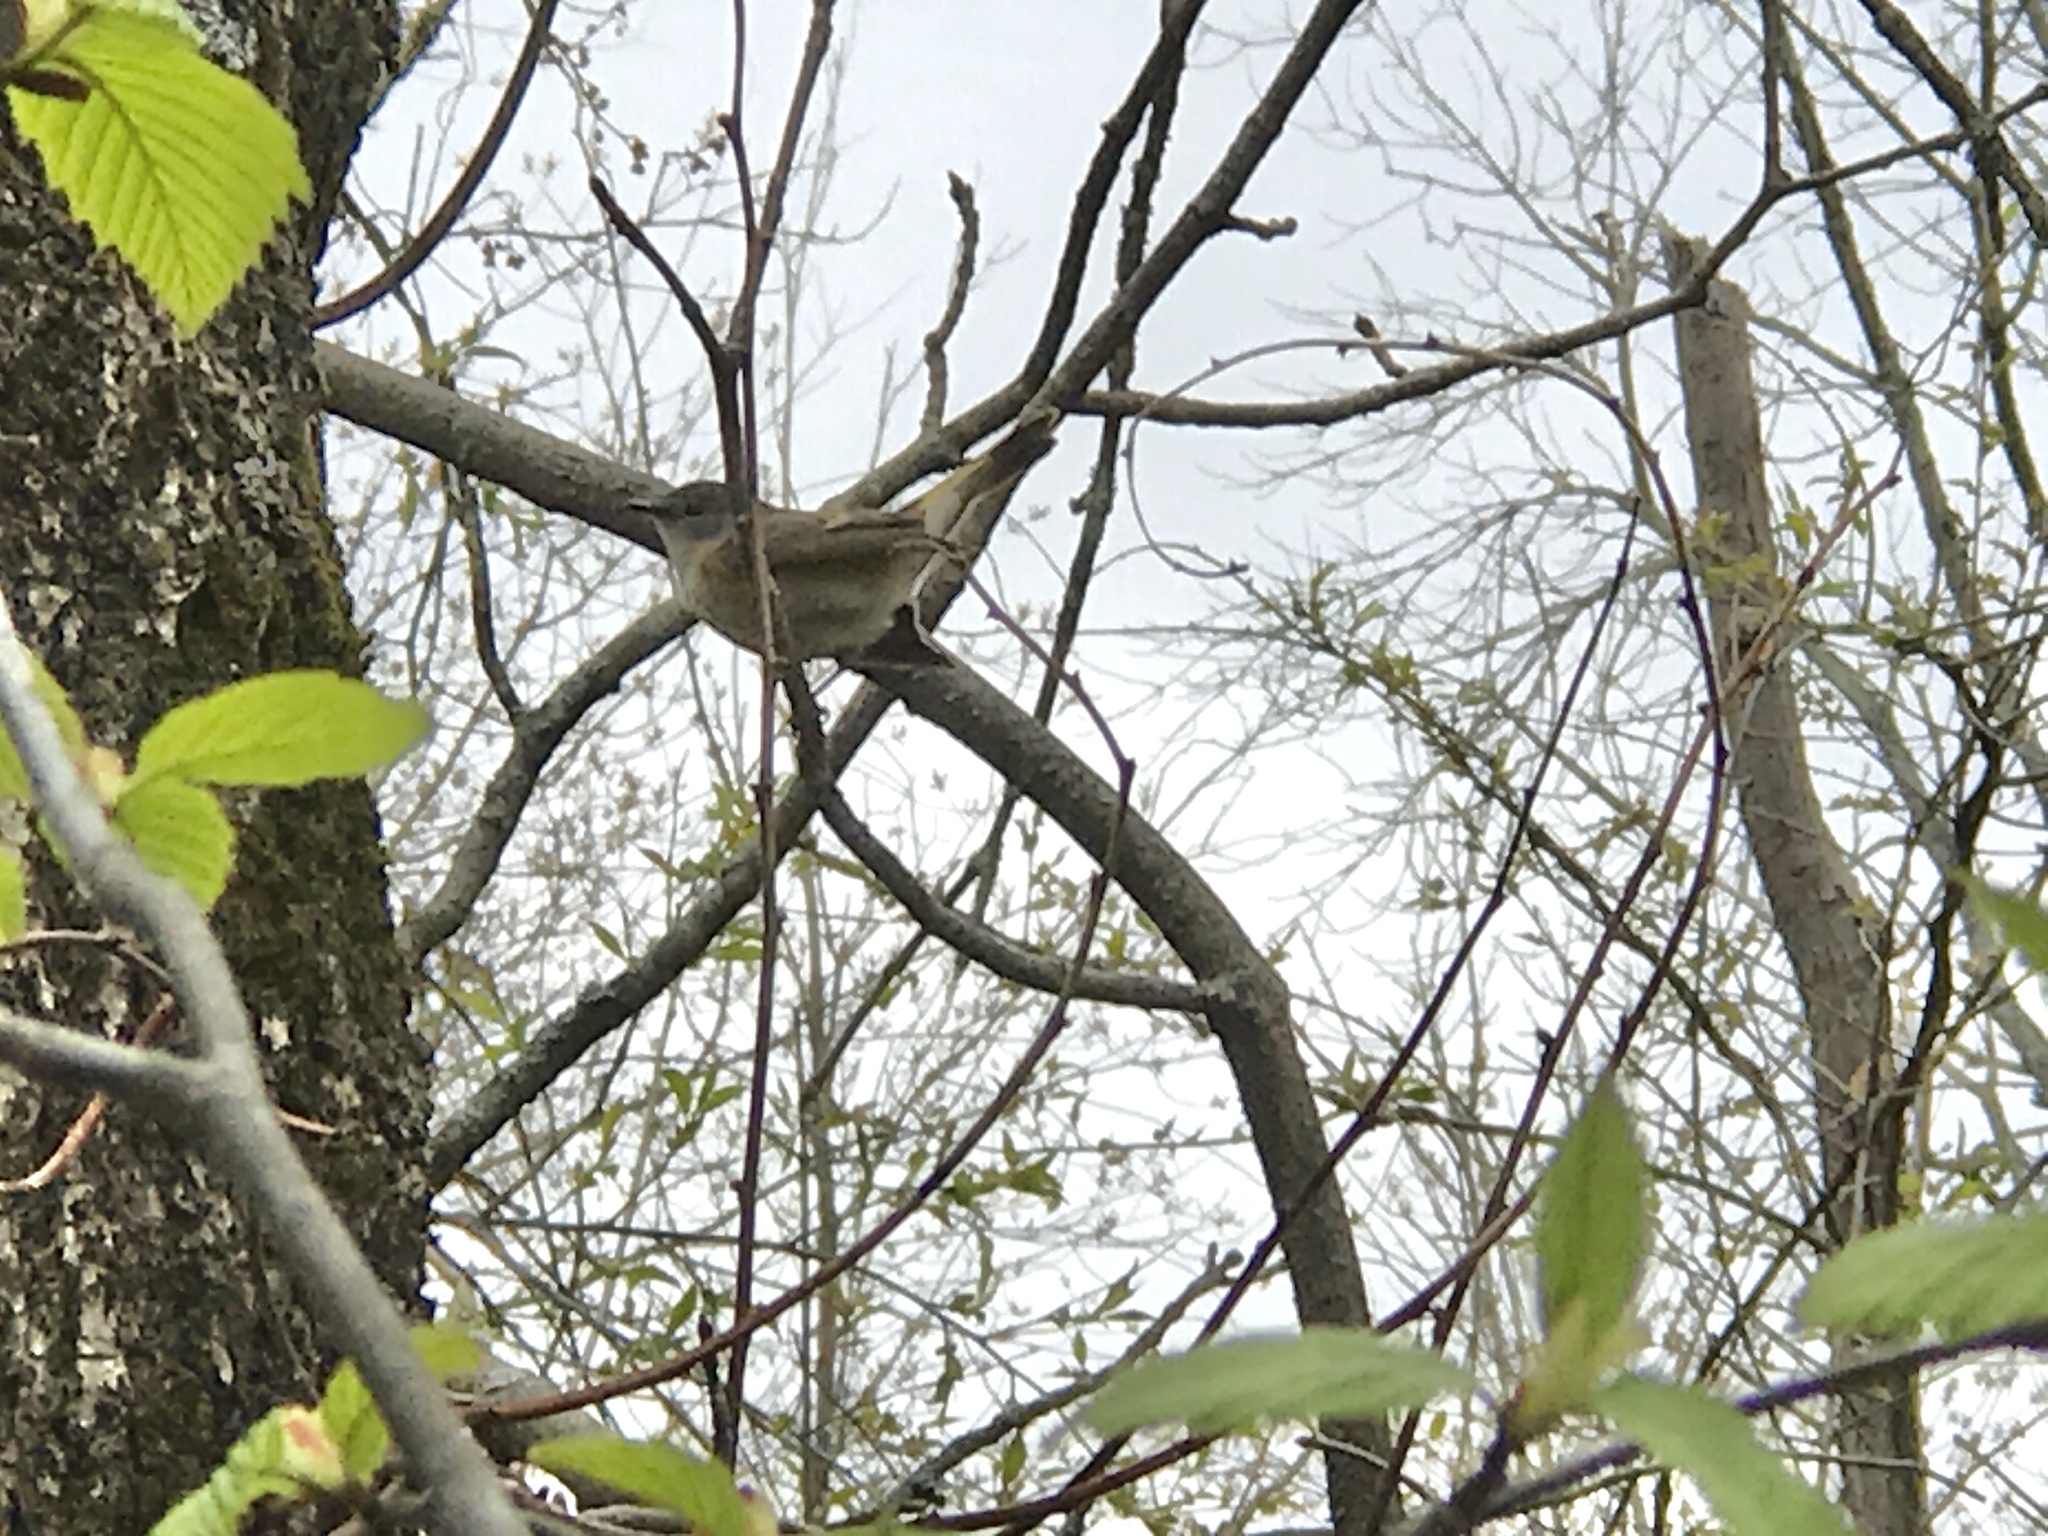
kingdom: Animalia
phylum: Chordata
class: Aves
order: Passeriformes
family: Parulidae
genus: Setophaga
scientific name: Setophaga ruticilla
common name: American redstart
